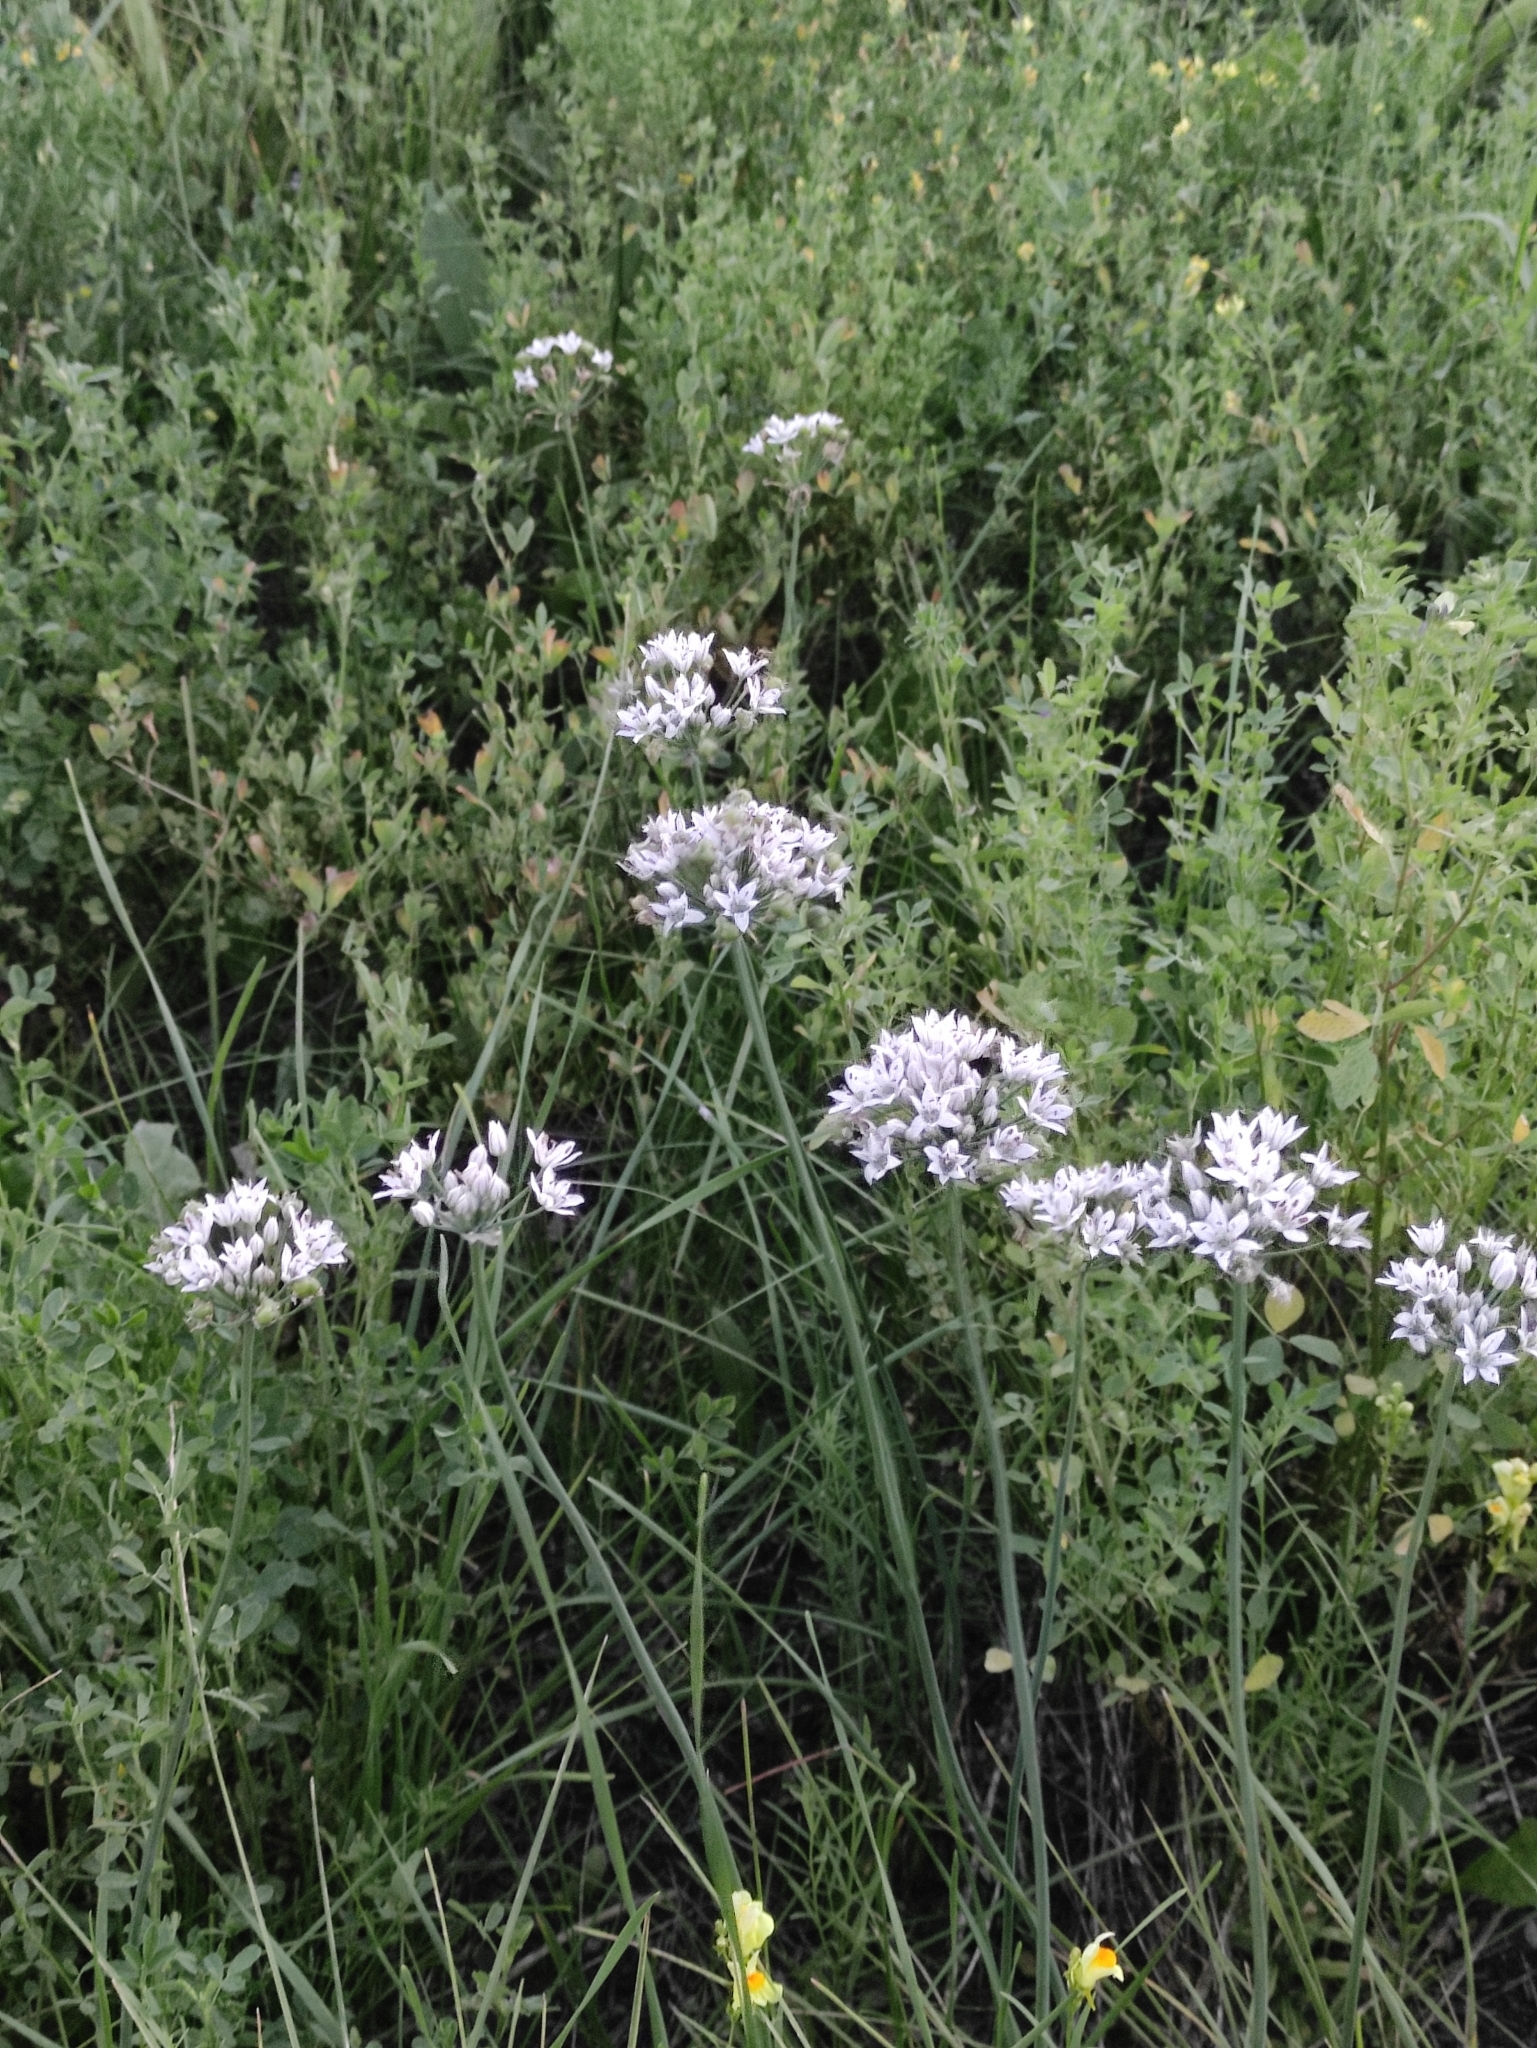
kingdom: Plantae
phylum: Tracheophyta
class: Liliopsida
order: Asparagales
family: Amaryllidaceae
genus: Allium
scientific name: Allium ramosum
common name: Fragrant garlic
